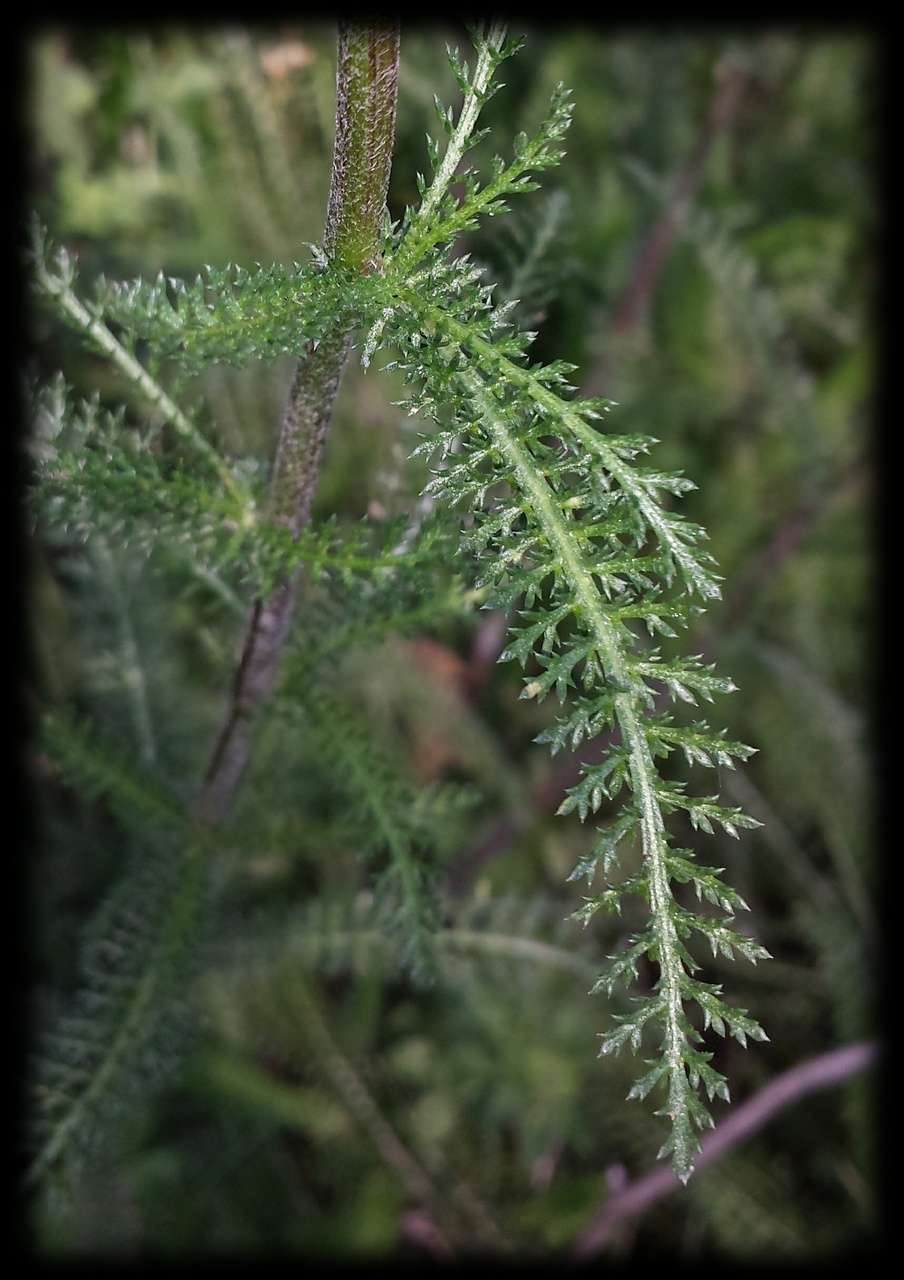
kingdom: Plantae
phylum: Tracheophyta
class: Magnoliopsida
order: Asterales
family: Asteraceae
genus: Achillea
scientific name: Achillea millefolium
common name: Yarrow
